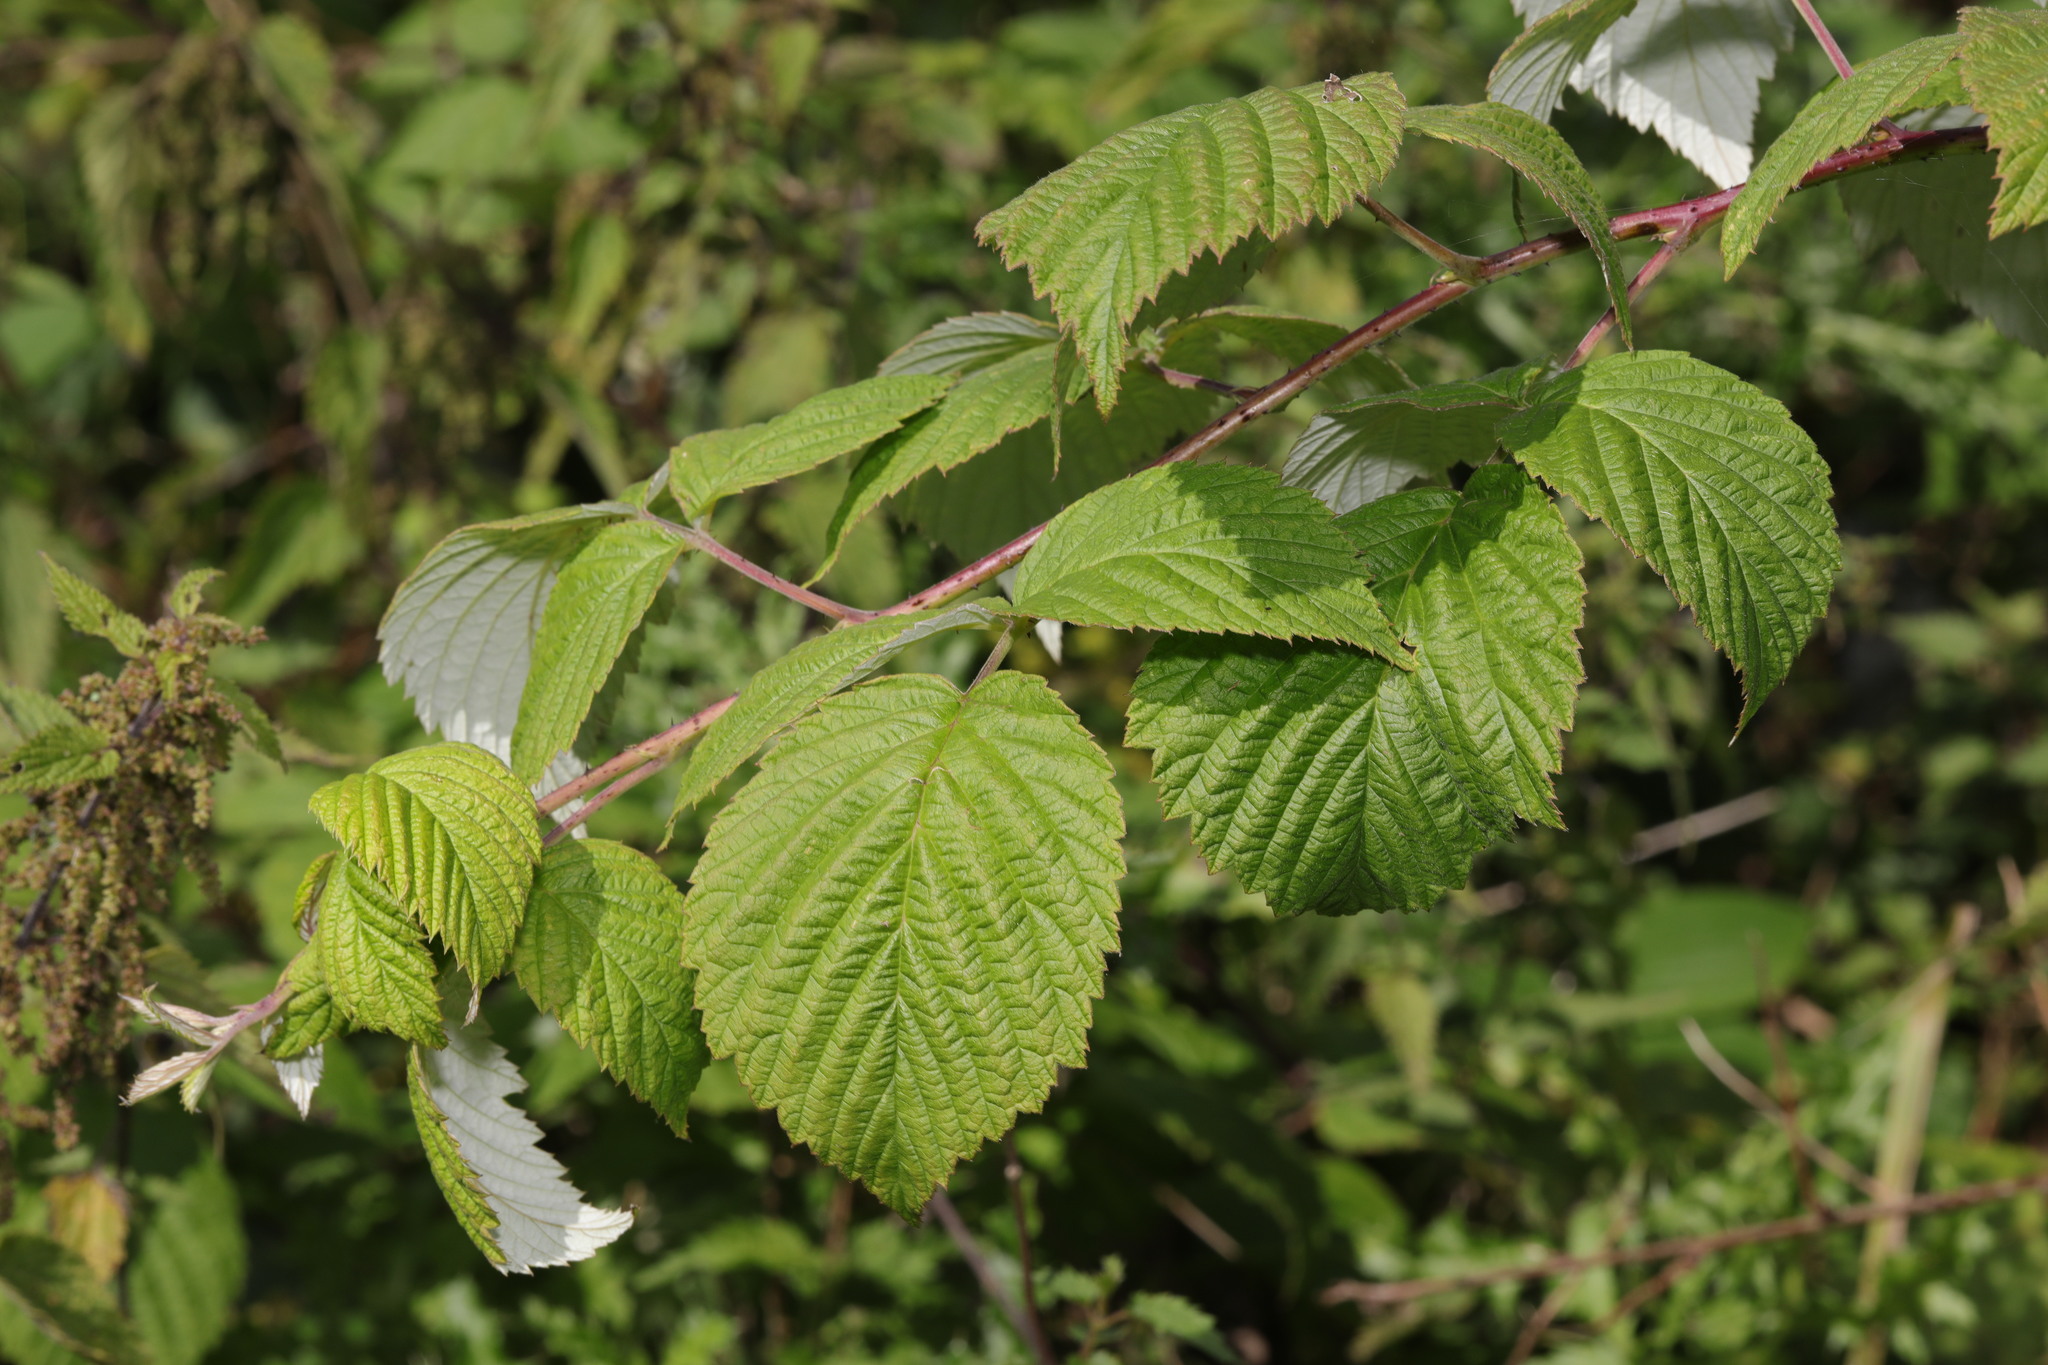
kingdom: Plantae
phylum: Tracheophyta
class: Magnoliopsida
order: Rosales
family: Rosaceae
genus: Rubus
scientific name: Rubus idaeus
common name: Raspberry
